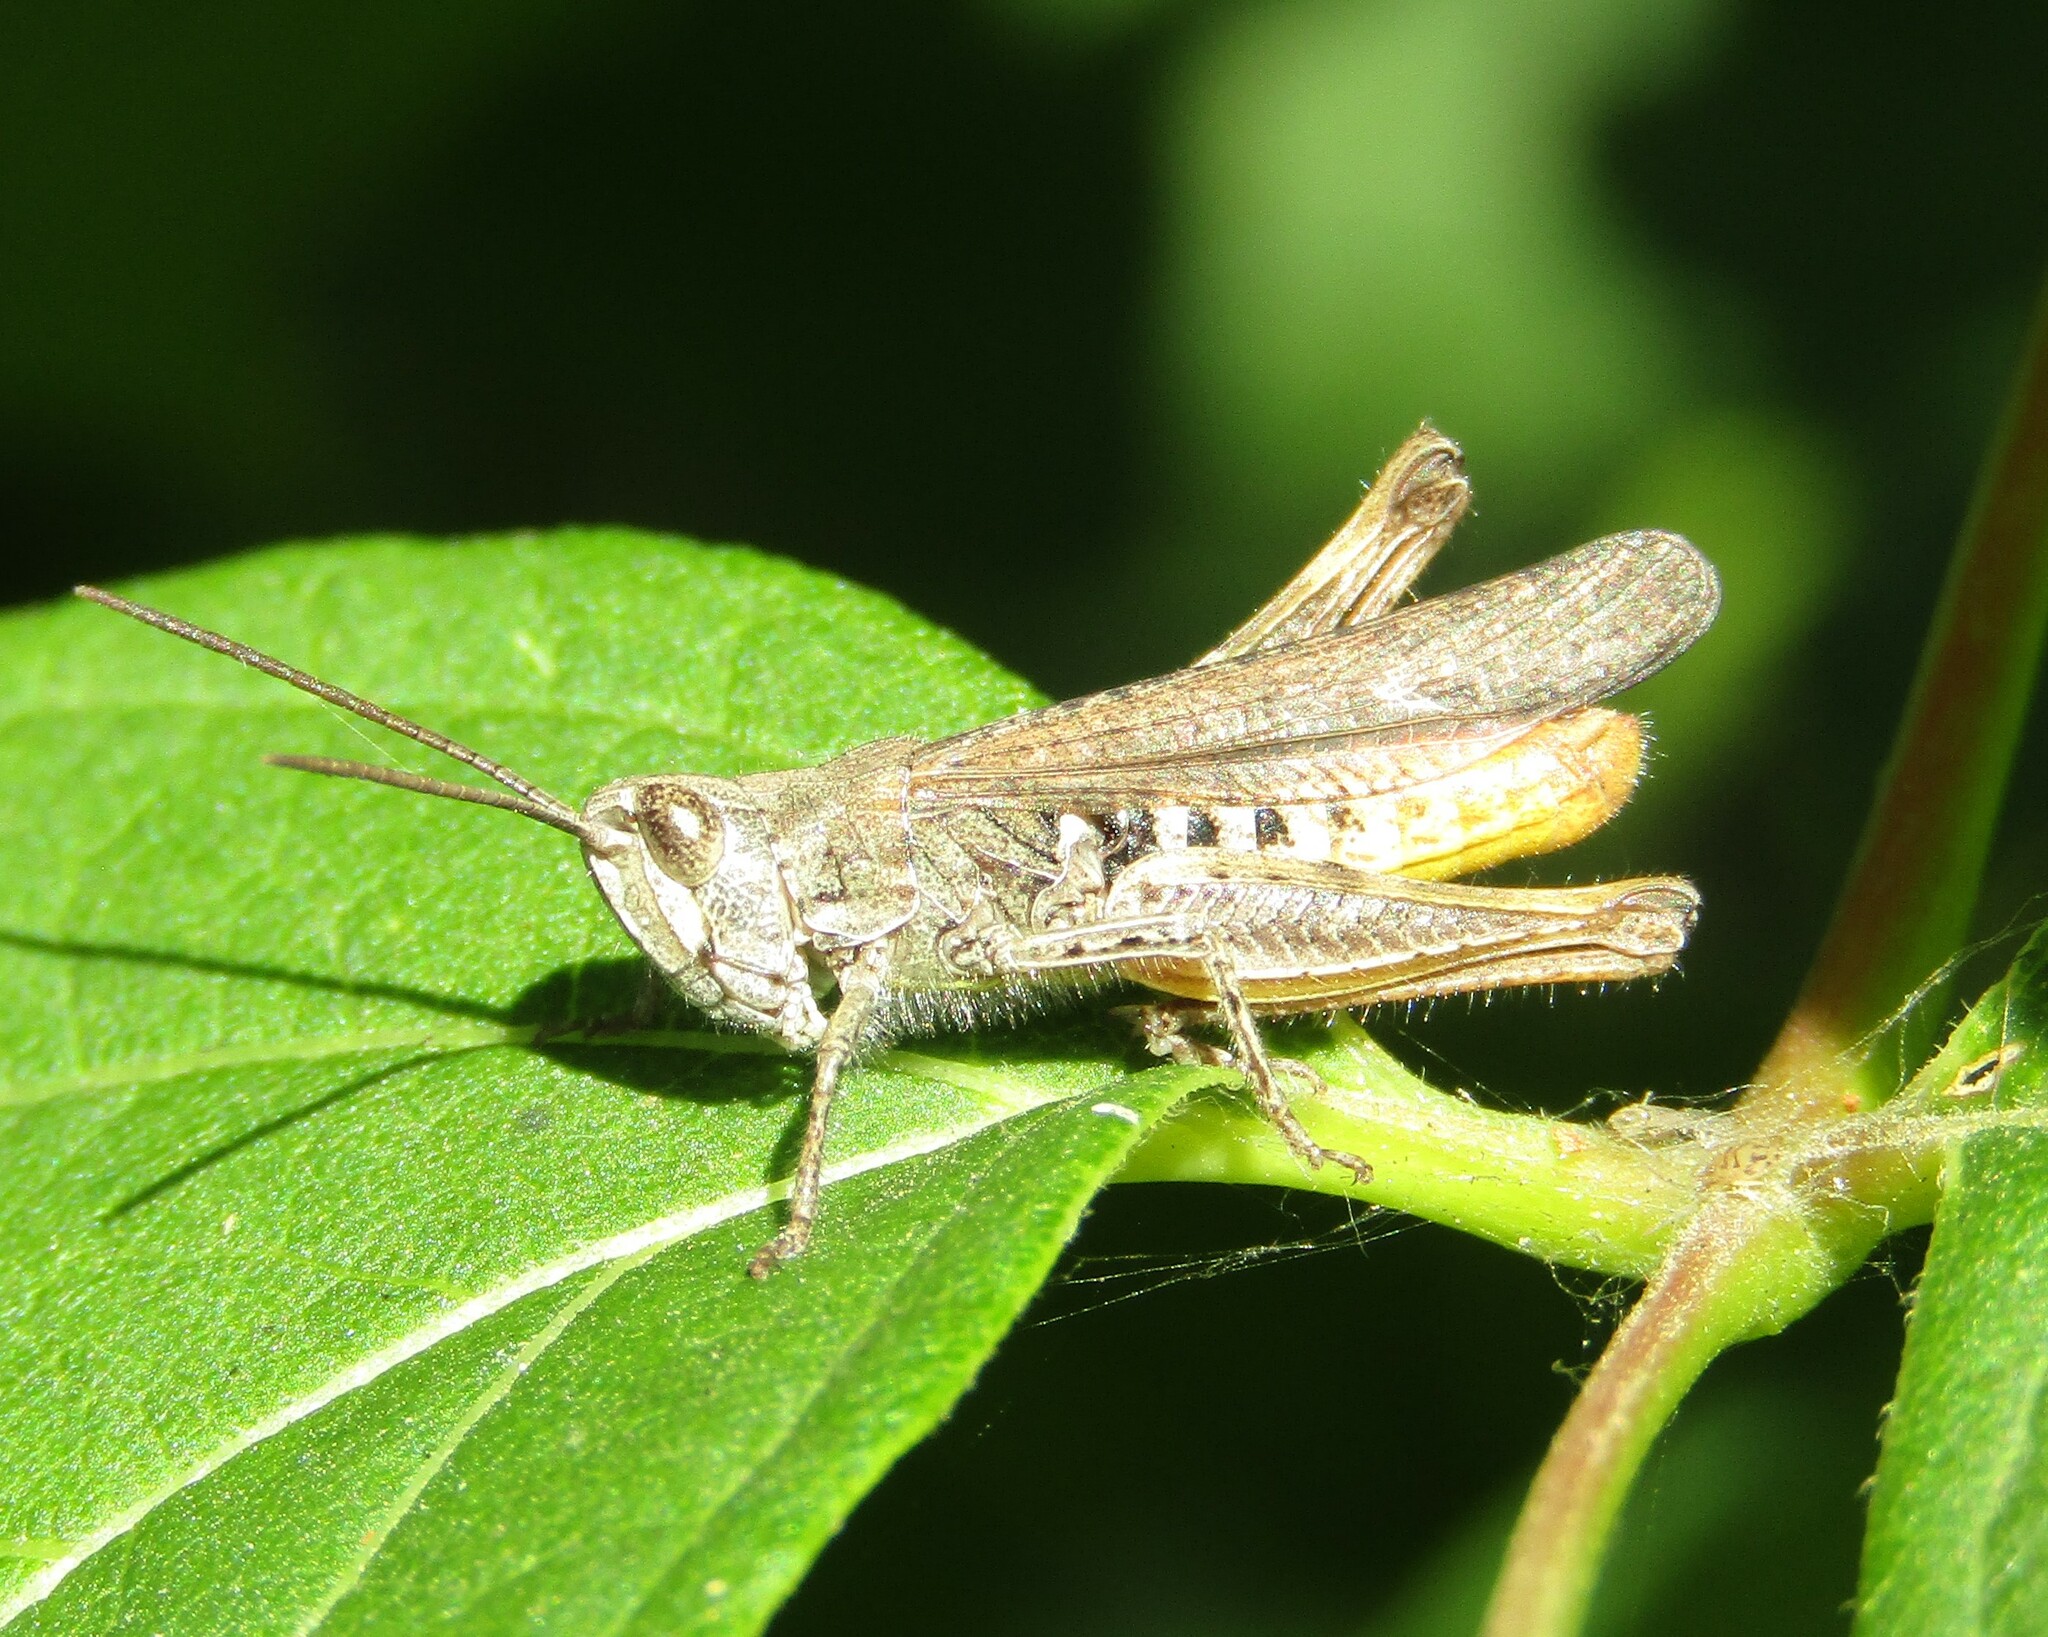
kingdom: Animalia
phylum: Arthropoda
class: Insecta
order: Orthoptera
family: Acrididae
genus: Chorthippus
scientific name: Chorthippus brunneus
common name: Field grasshopper
